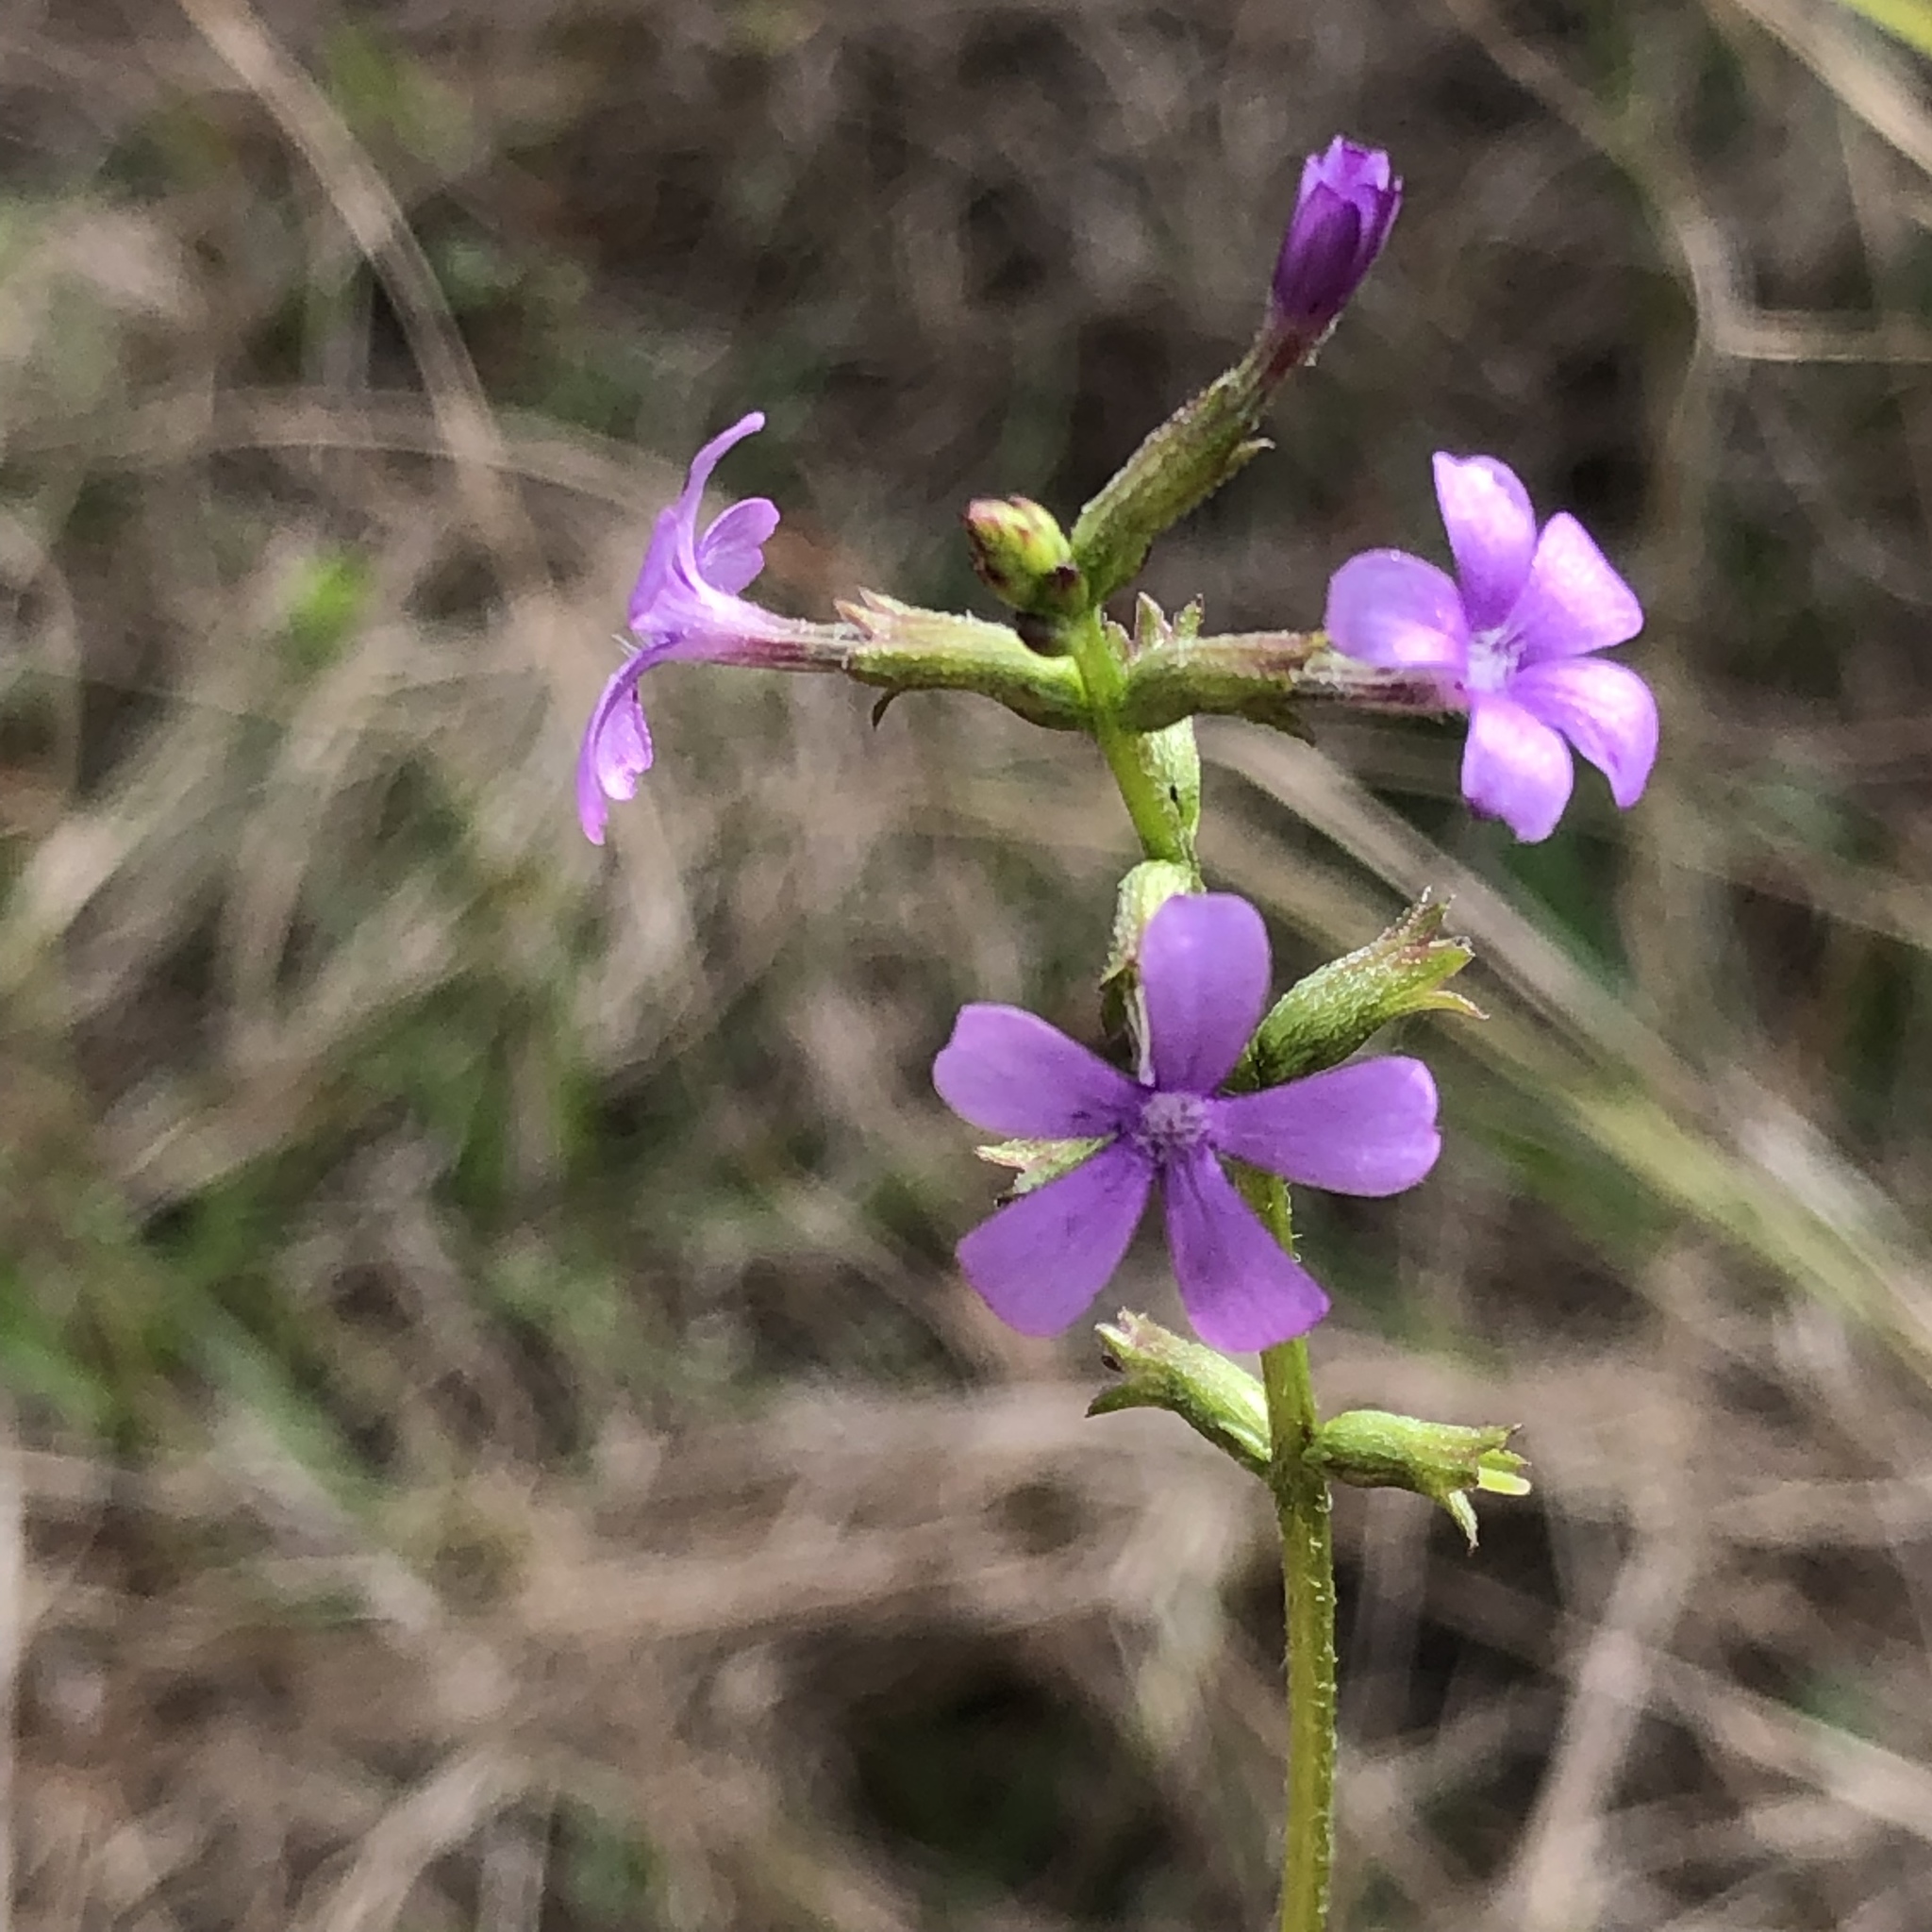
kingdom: Plantae
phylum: Tracheophyta
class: Magnoliopsida
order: Lamiales
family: Orobanchaceae
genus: Buchnera
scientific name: Buchnera floridana
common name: Florida bluehearts
